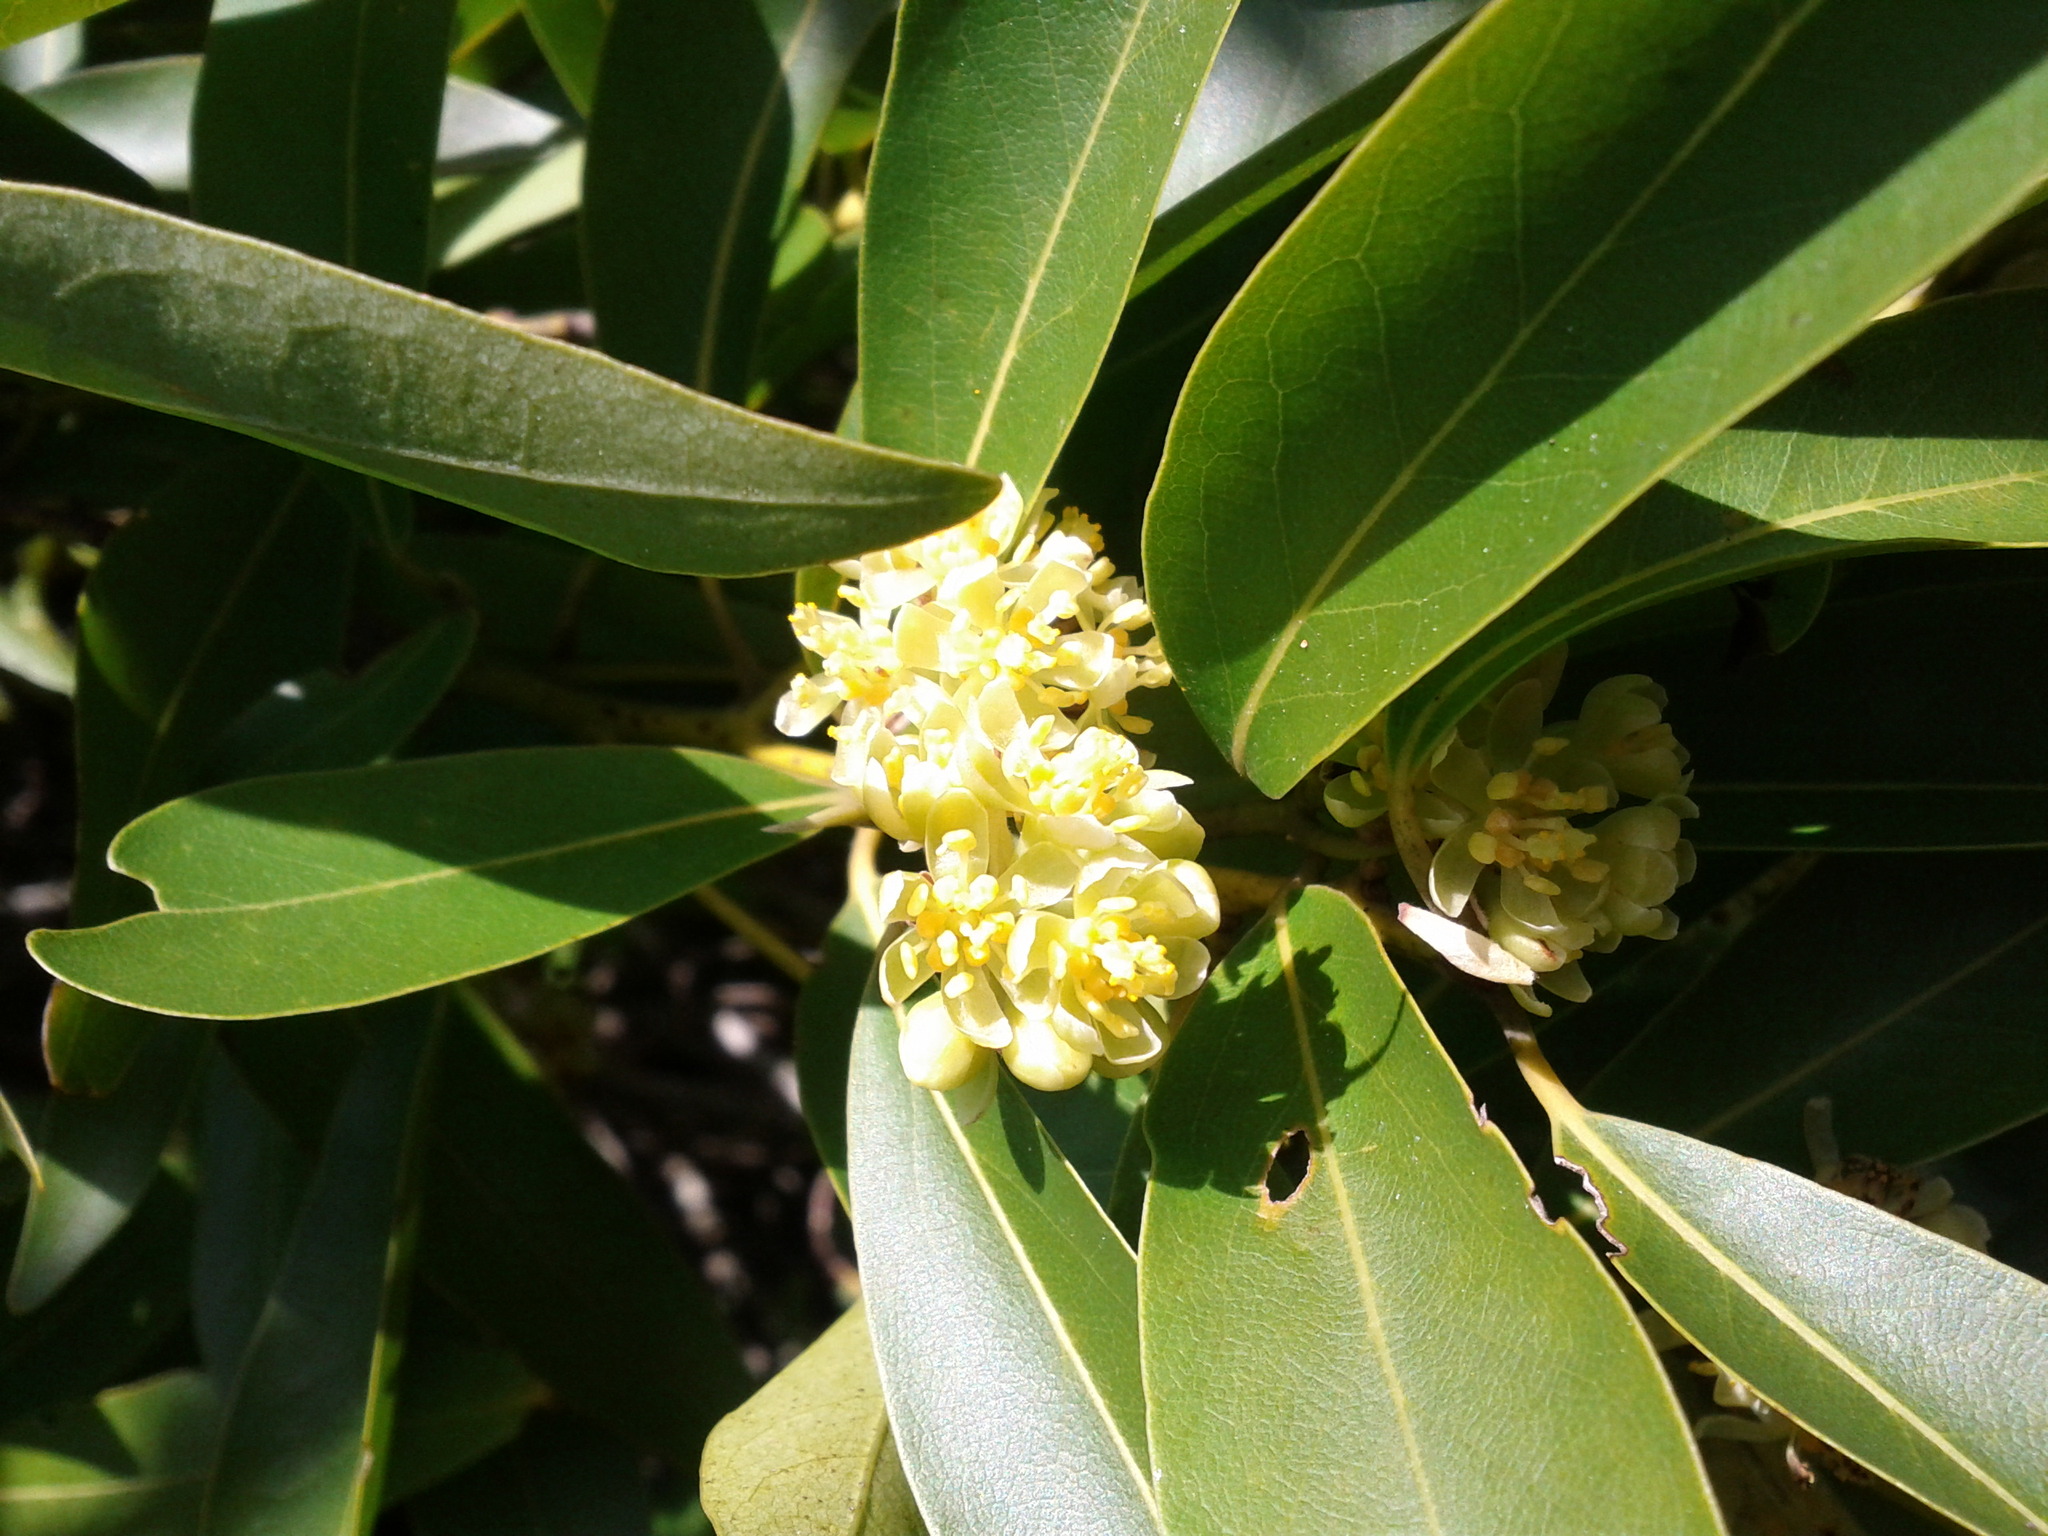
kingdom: Plantae
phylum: Tracheophyta
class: Magnoliopsida
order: Laurales
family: Lauraceae
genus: Umbellularia
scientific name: Umbellularia californica
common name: California bay
